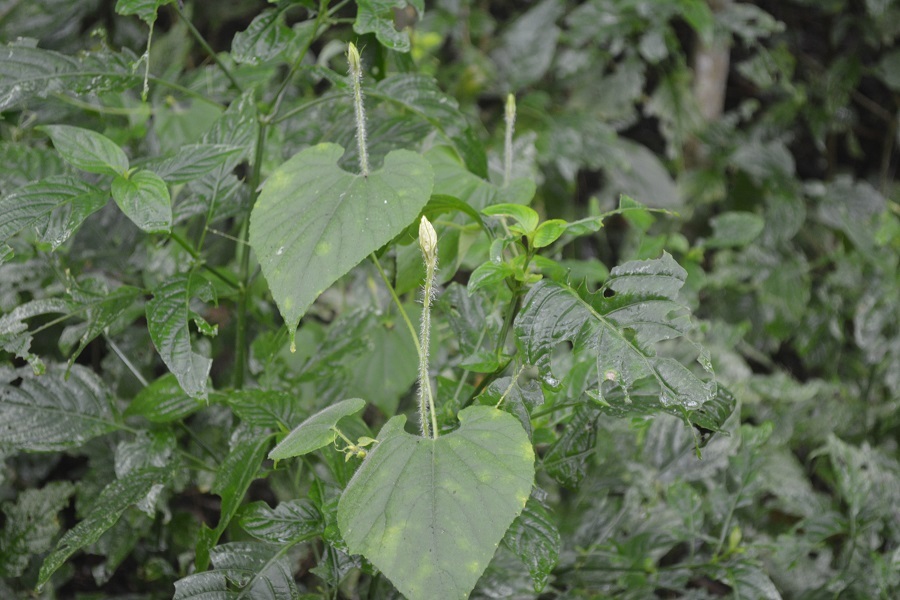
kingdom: Plantae
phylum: Tracheophyta
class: Magnoliopsida
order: Cucurbitales
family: Cucurbitaceae
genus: Schizocarpum
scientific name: Schizocarpum longisepalum
